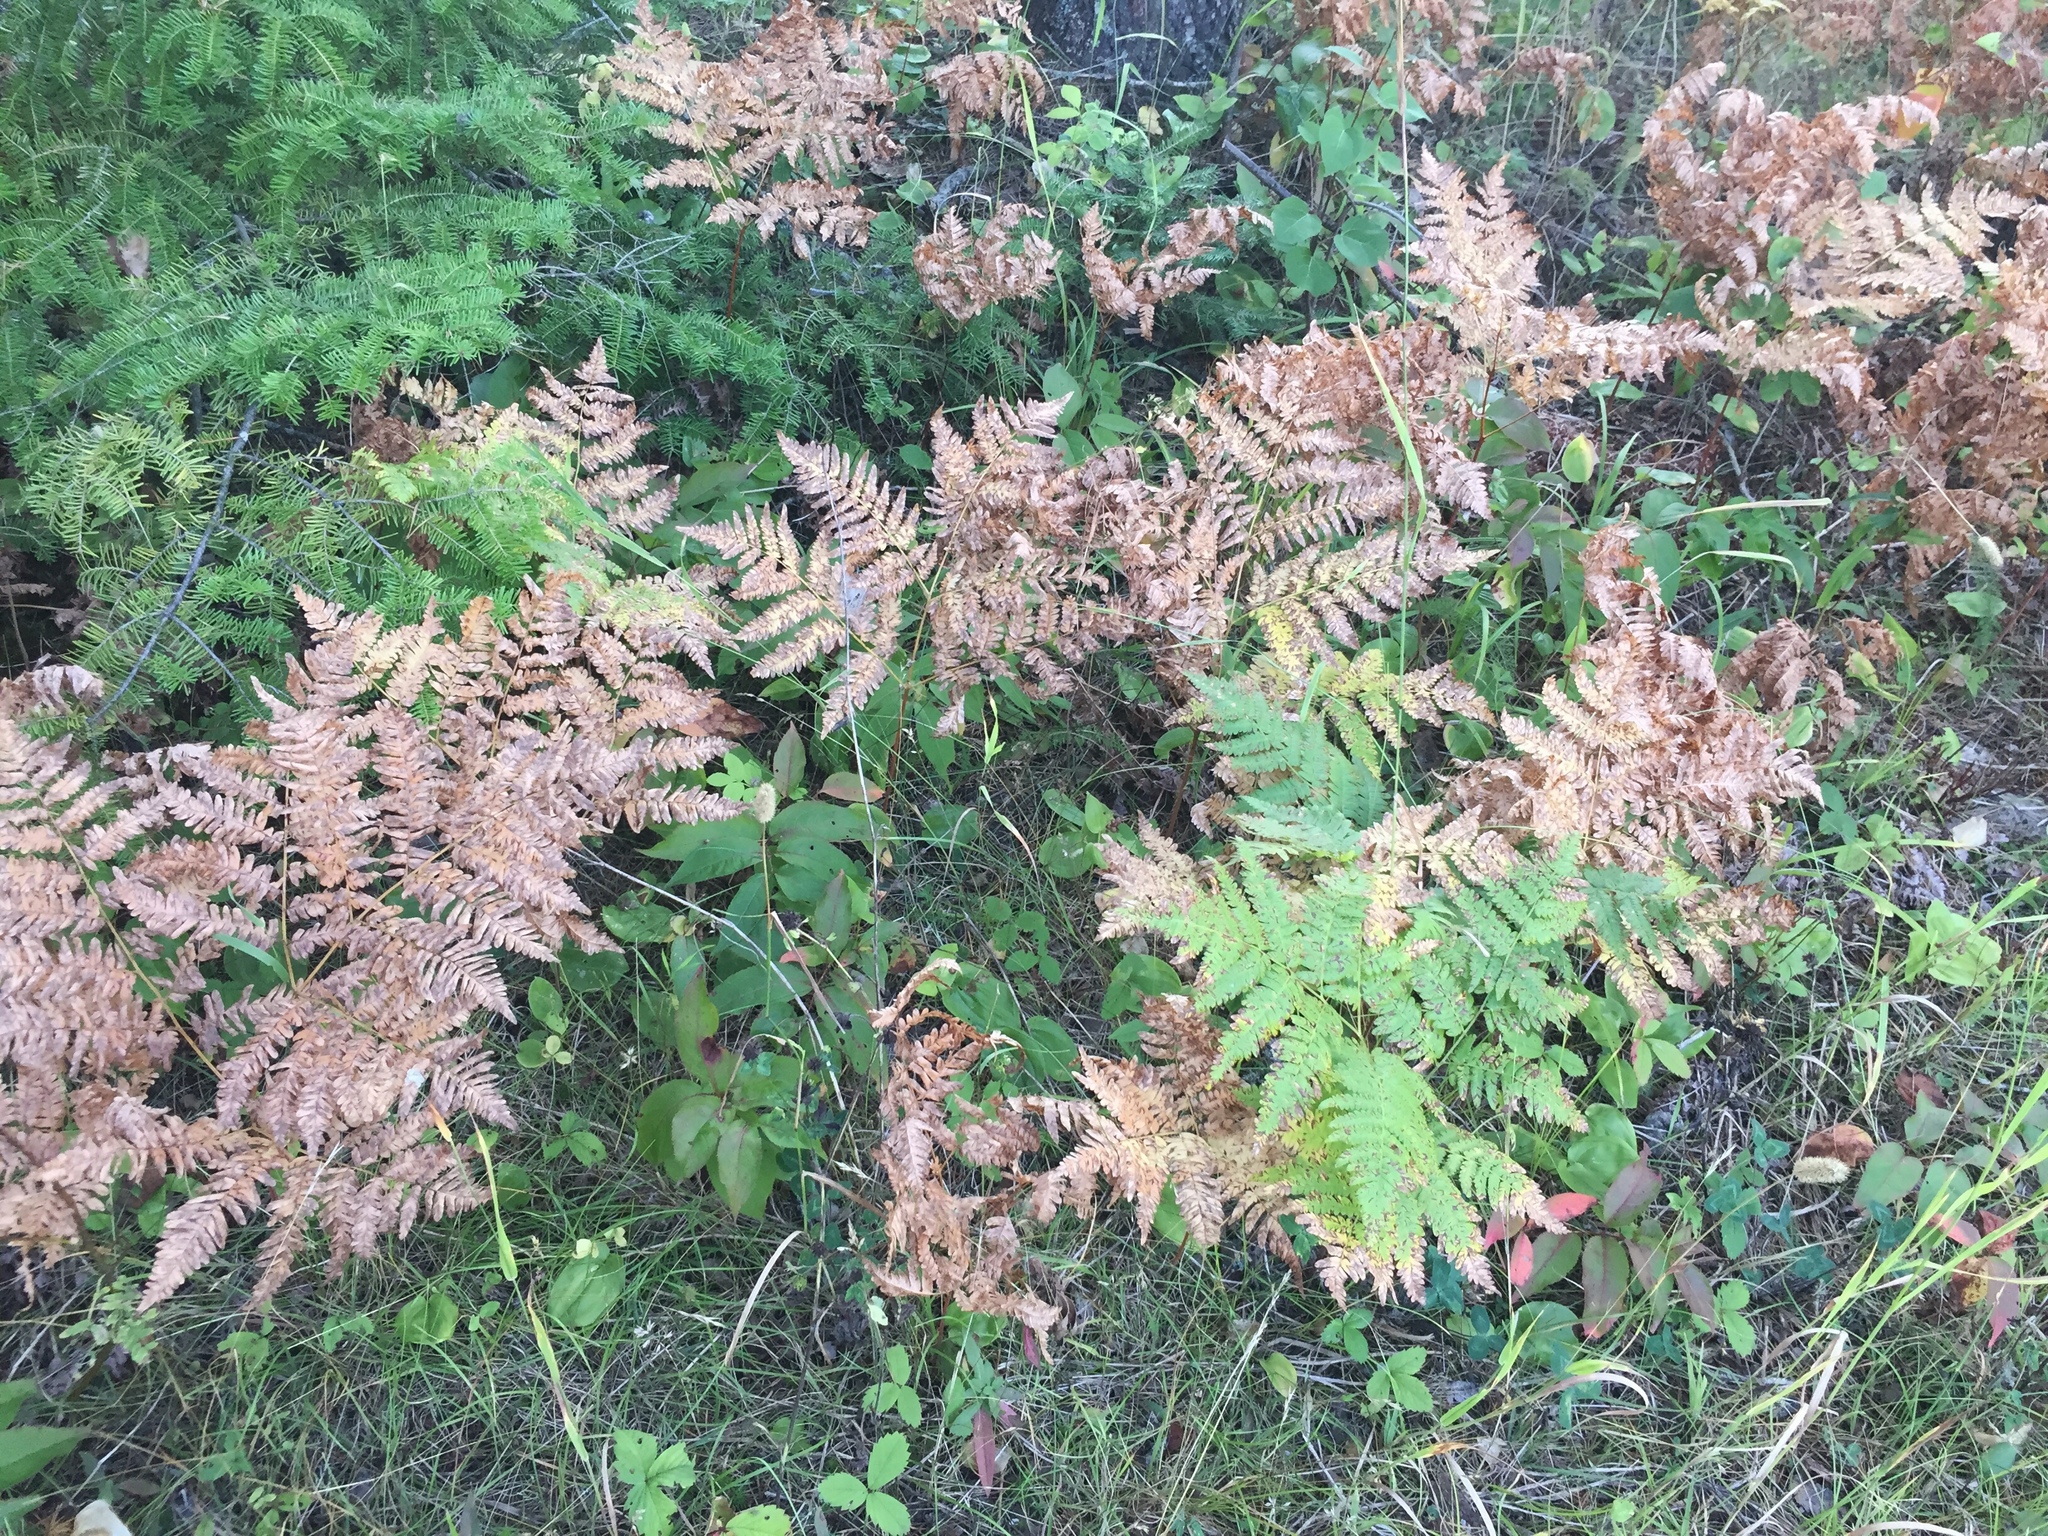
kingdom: Plantae
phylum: Tracheophyta
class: Polypodiopsida
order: Polypodiales
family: Dennstaedtiaceae
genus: Pteridium
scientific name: Pteridium aquilinum
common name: Bracken
